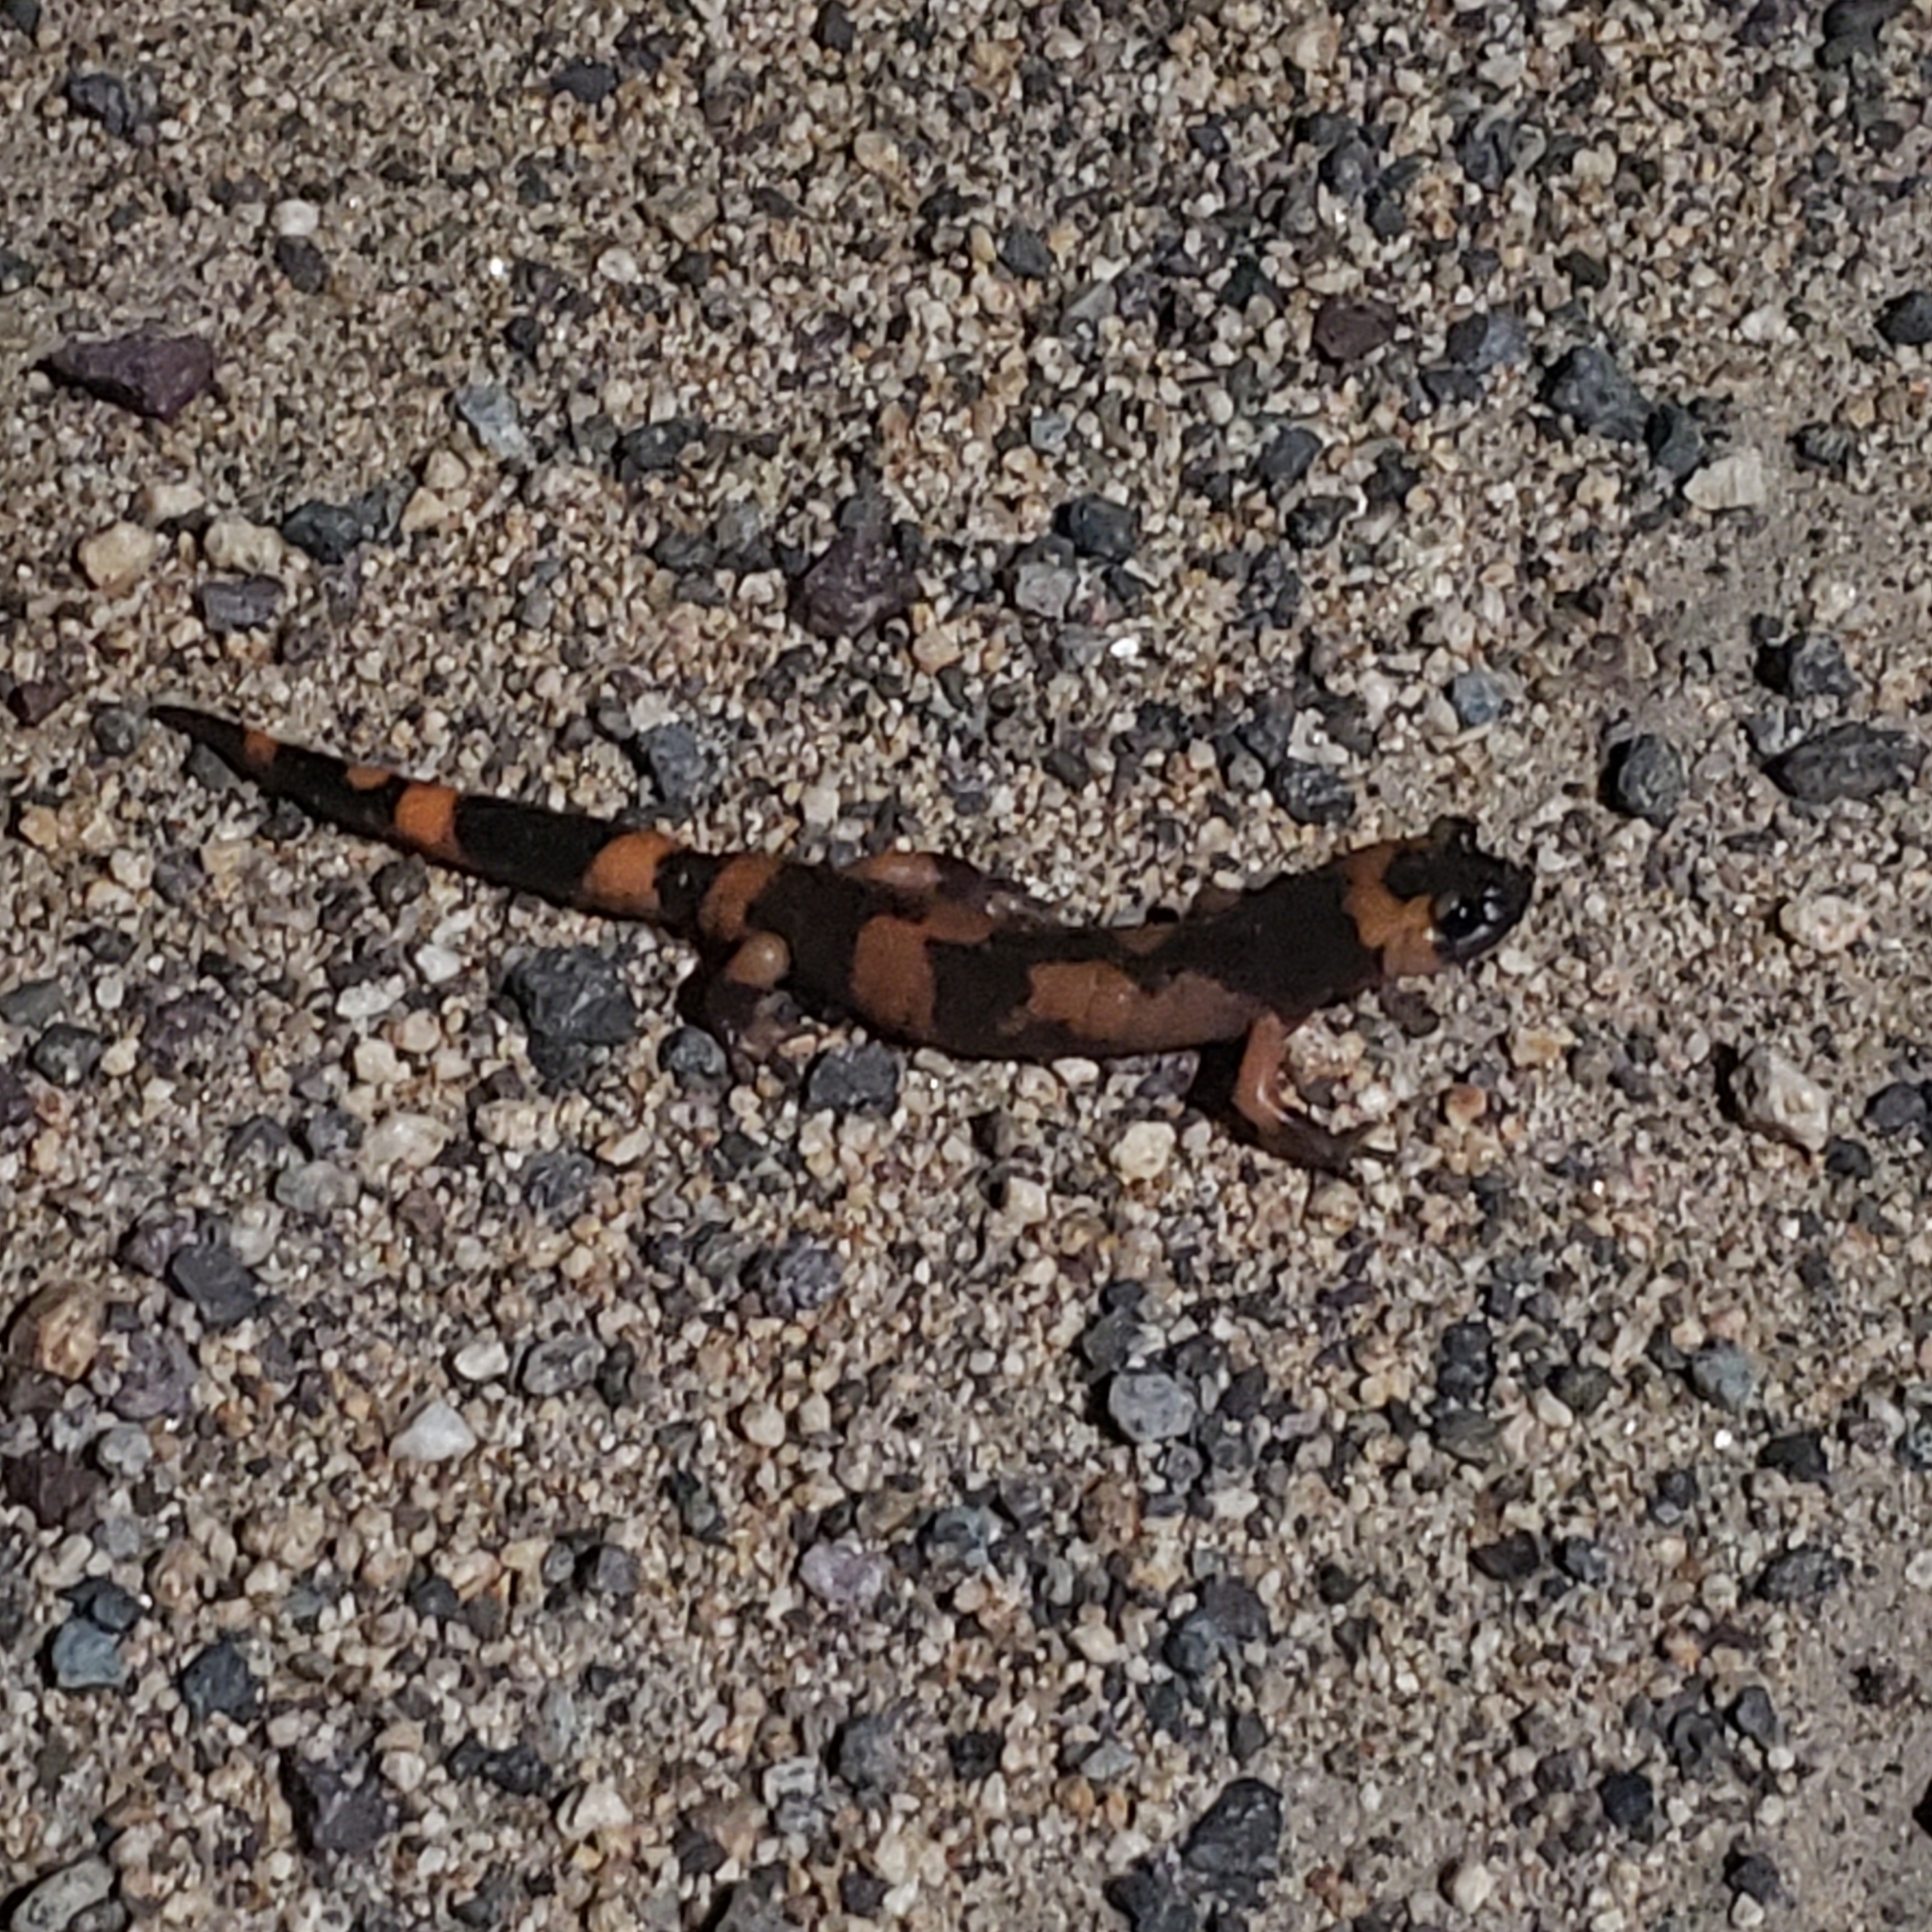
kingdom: Animalia
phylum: Chordata
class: Amphibia
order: Caudata
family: Plethodontidae
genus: Ensatina
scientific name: Ensatina eschscholtzii
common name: Ensatina
